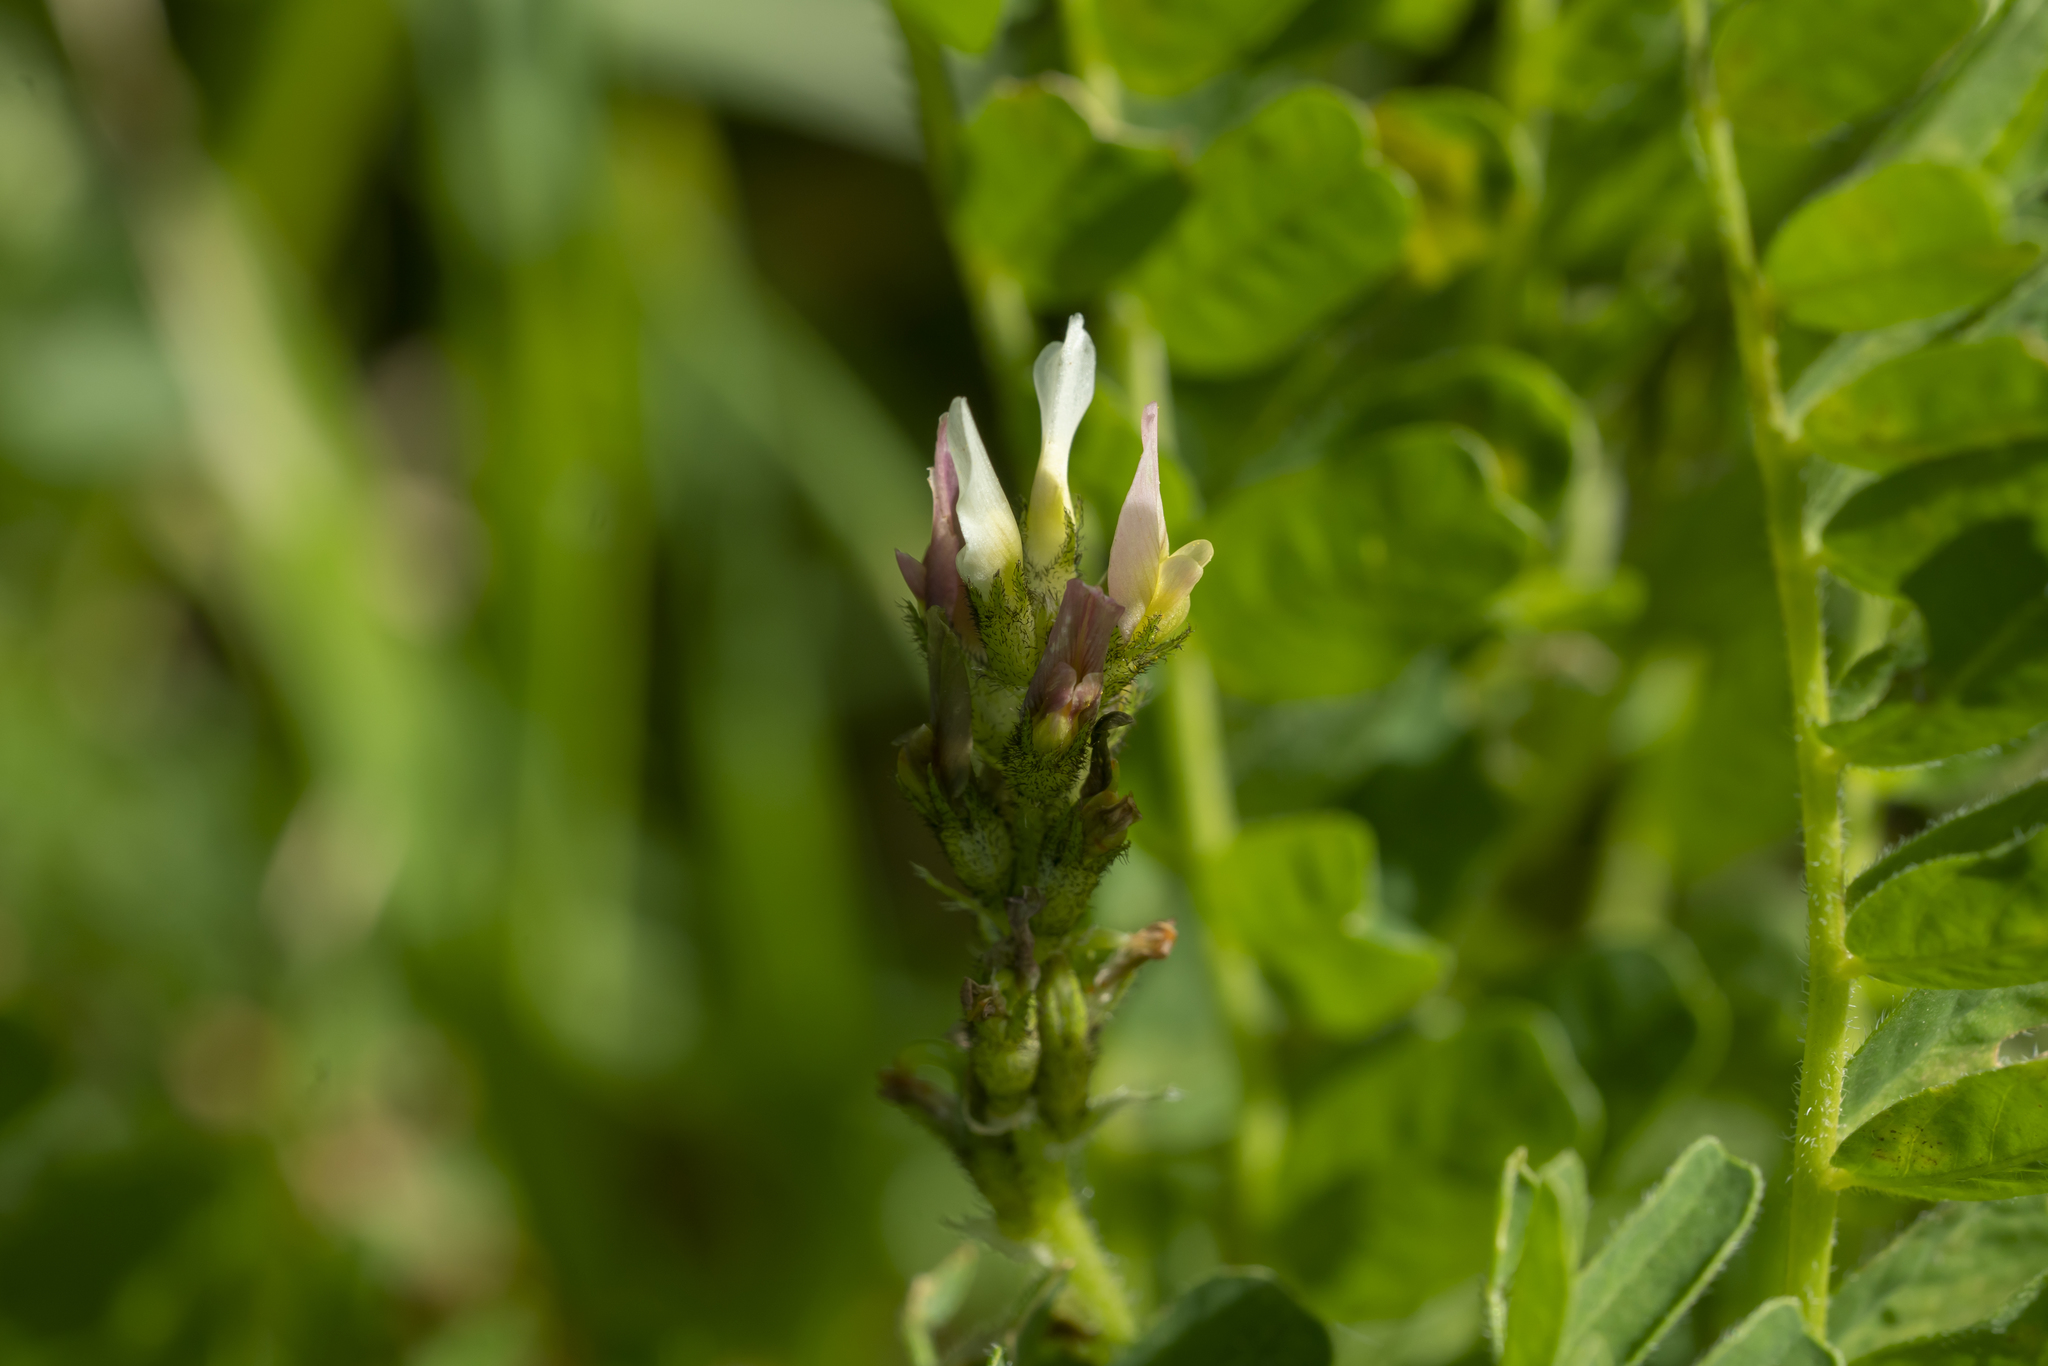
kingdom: Plantae
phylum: Tracheophyta
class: Magnoliopsida
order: Fabales
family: Fabaceae
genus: Astragalus
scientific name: Astragalus boeticus
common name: Milk-vetch
